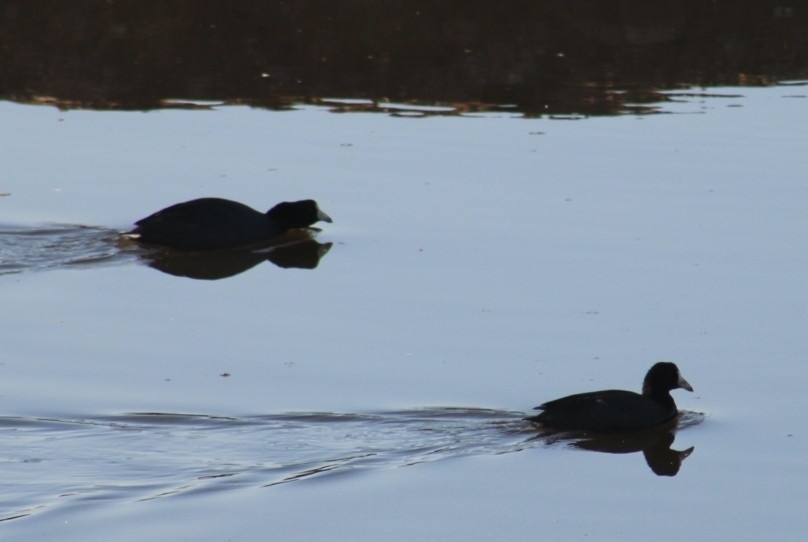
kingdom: Animalia
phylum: Chordata
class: Aves
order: Gruiformes
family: Rallidae
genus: Fulica
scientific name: Fulica americana
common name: American coot
